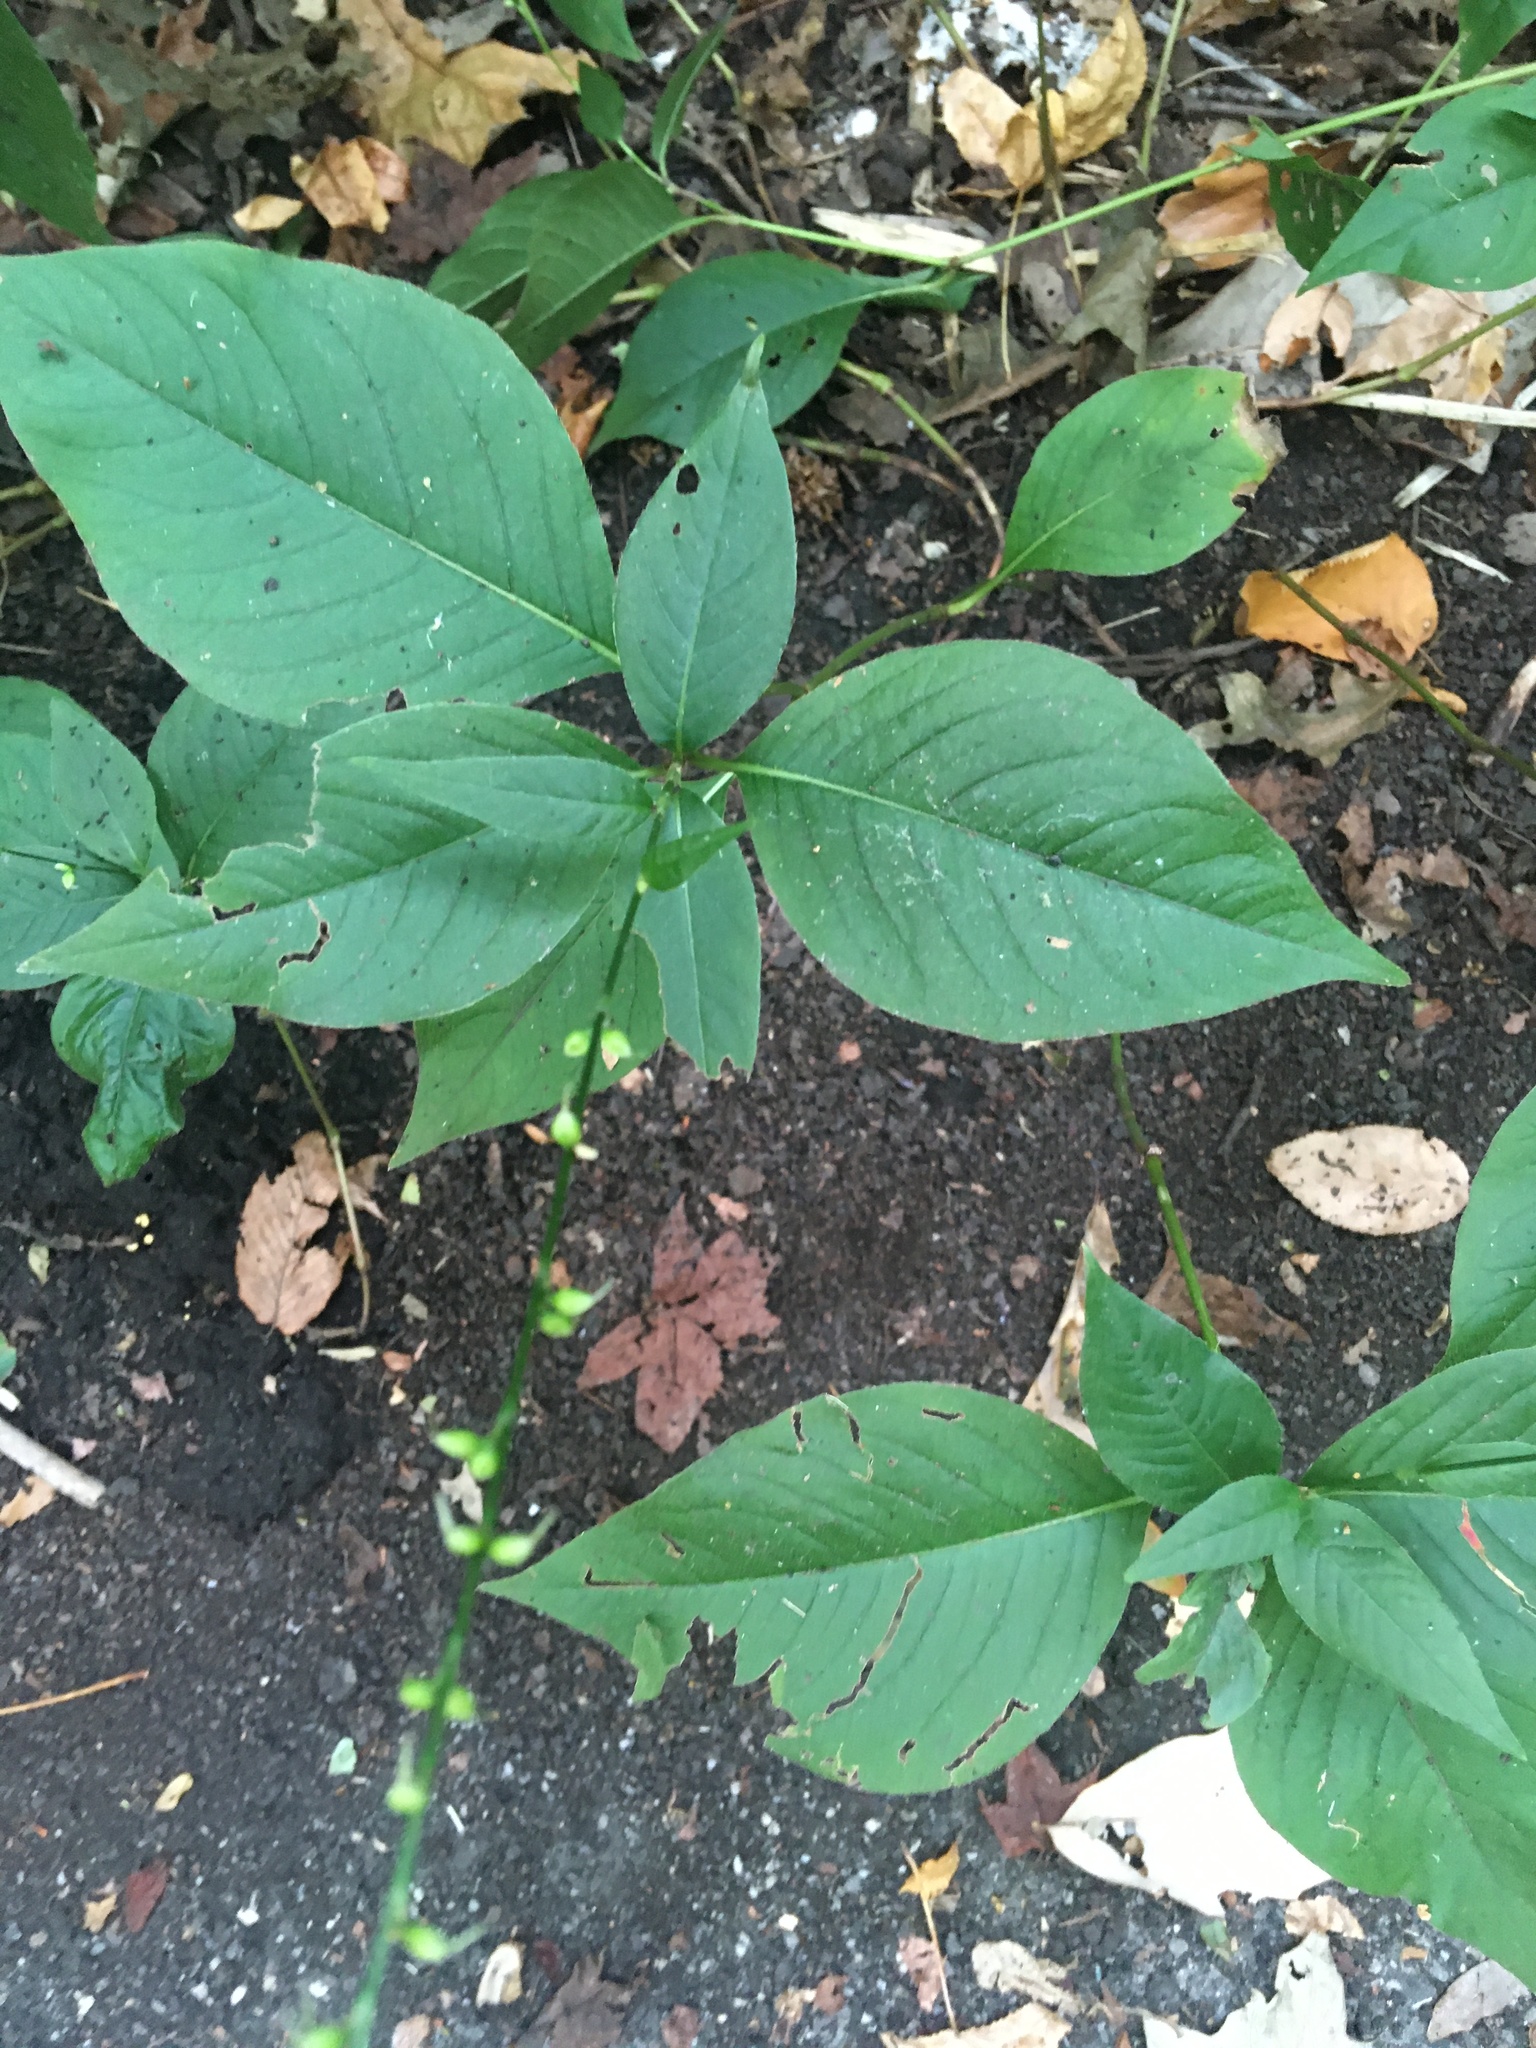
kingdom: Plantae
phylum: Tracheophyta
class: Magnoliopsida
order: Caryophyllales
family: Polygonaceae
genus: Persicaria
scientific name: Persicaria virginiana
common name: Jumpseed
